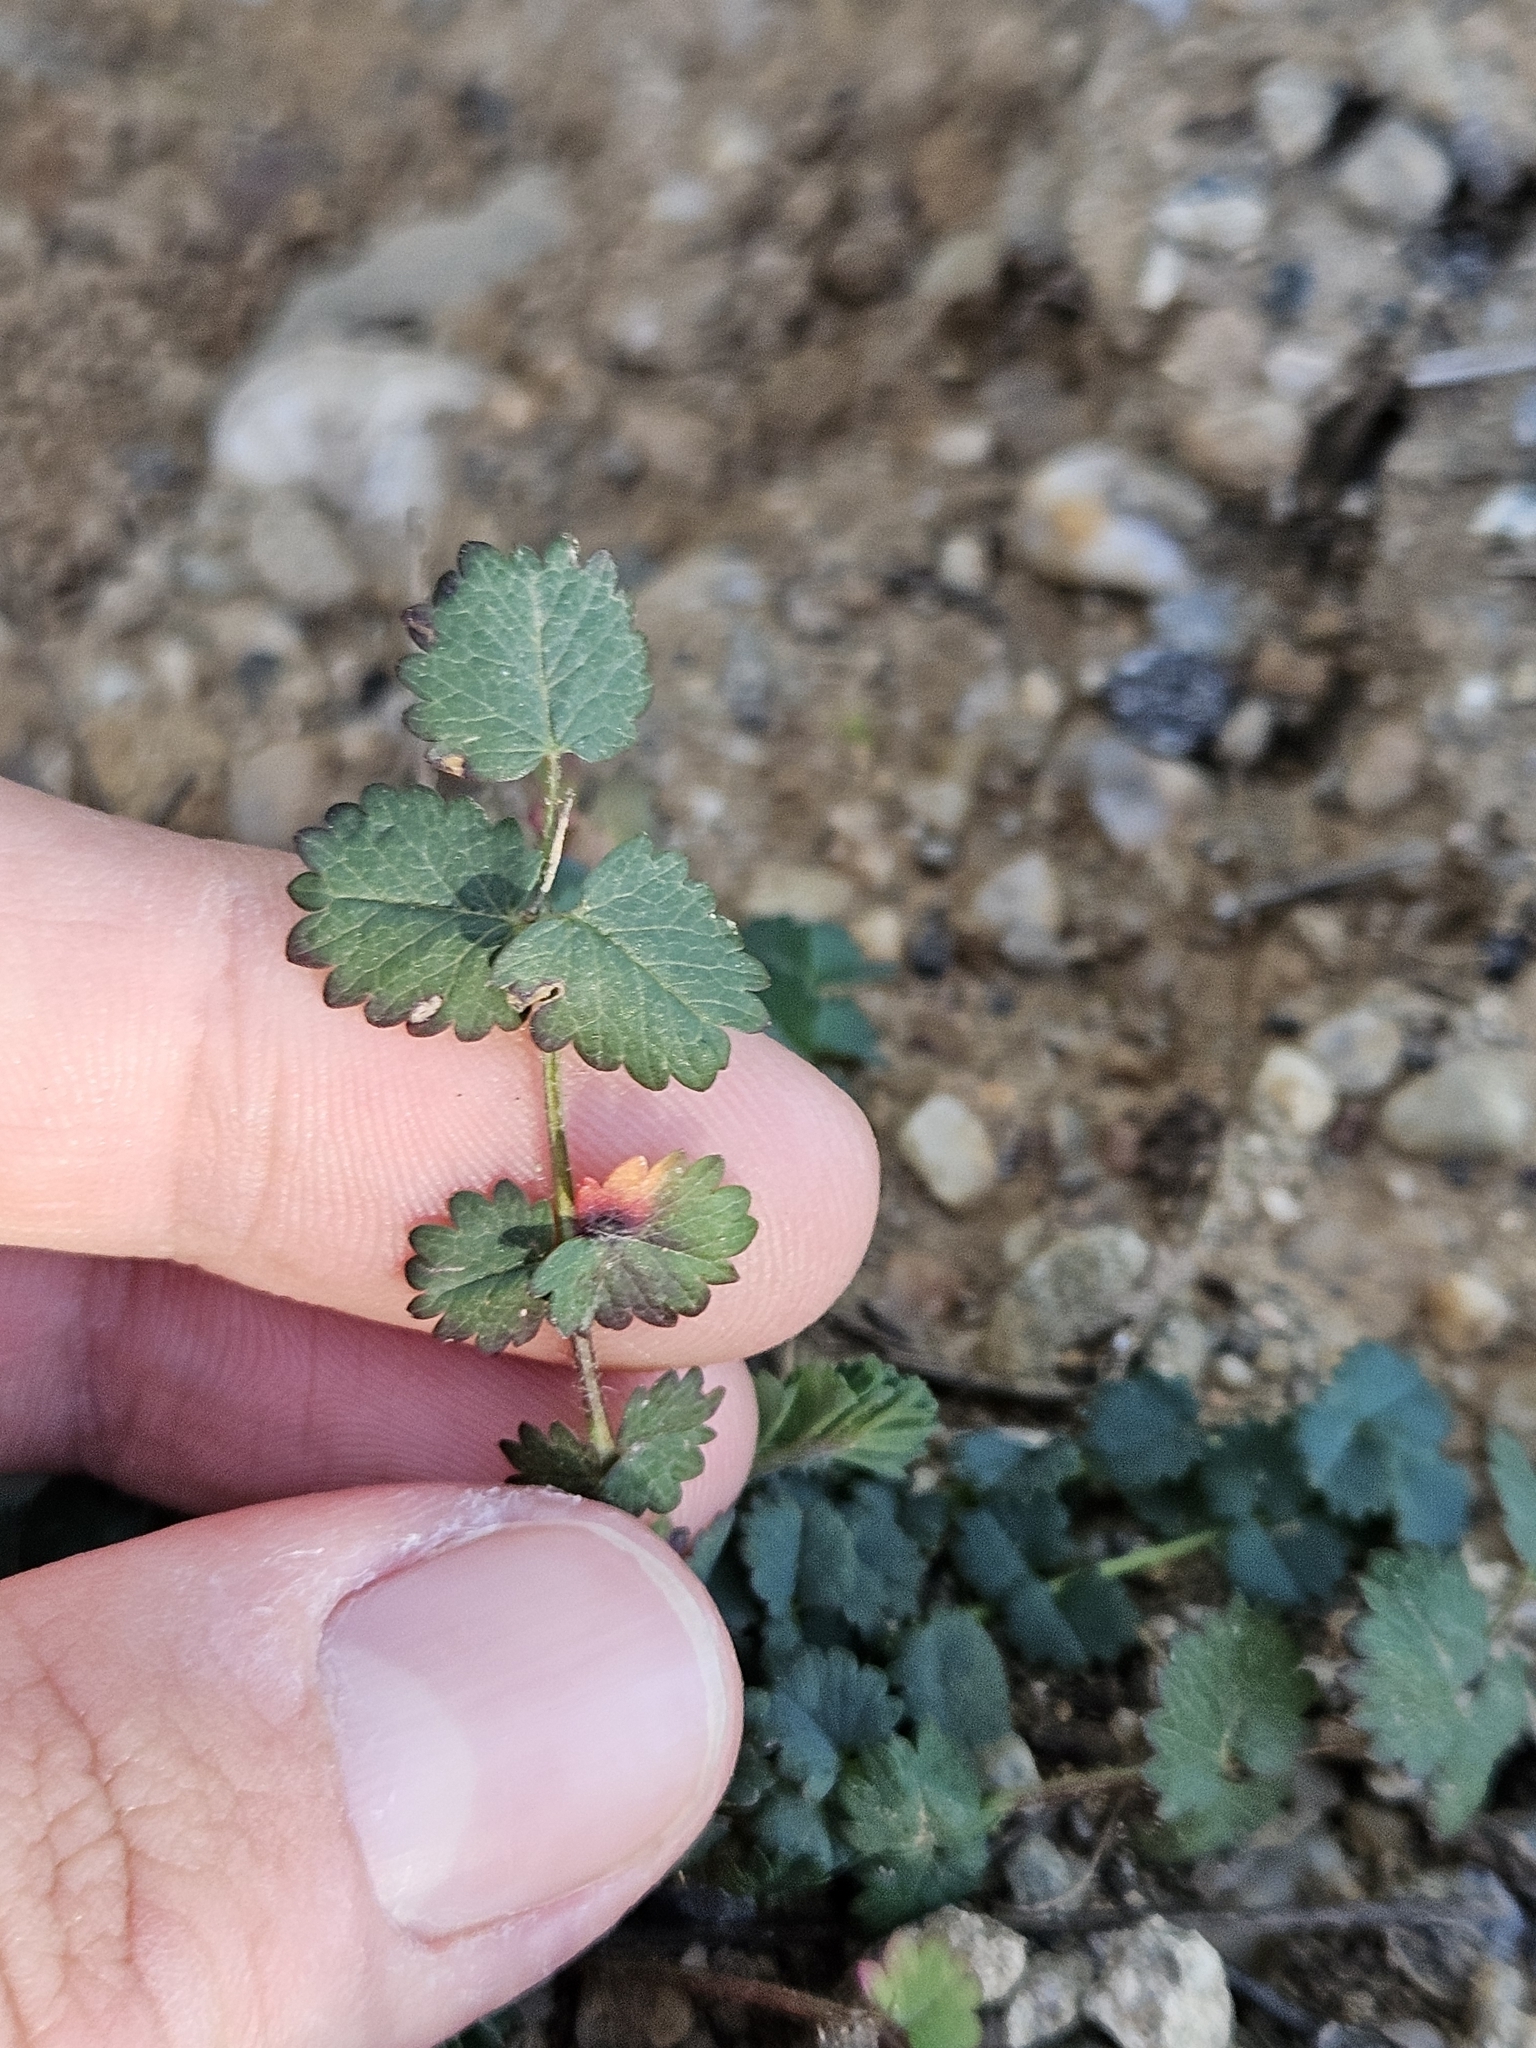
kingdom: Plantae
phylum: Tracheophyta
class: Magnoliopsida
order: Rosales
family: Rosaceae
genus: Poterium
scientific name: Poterium sanguisorba
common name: Salad burnet
